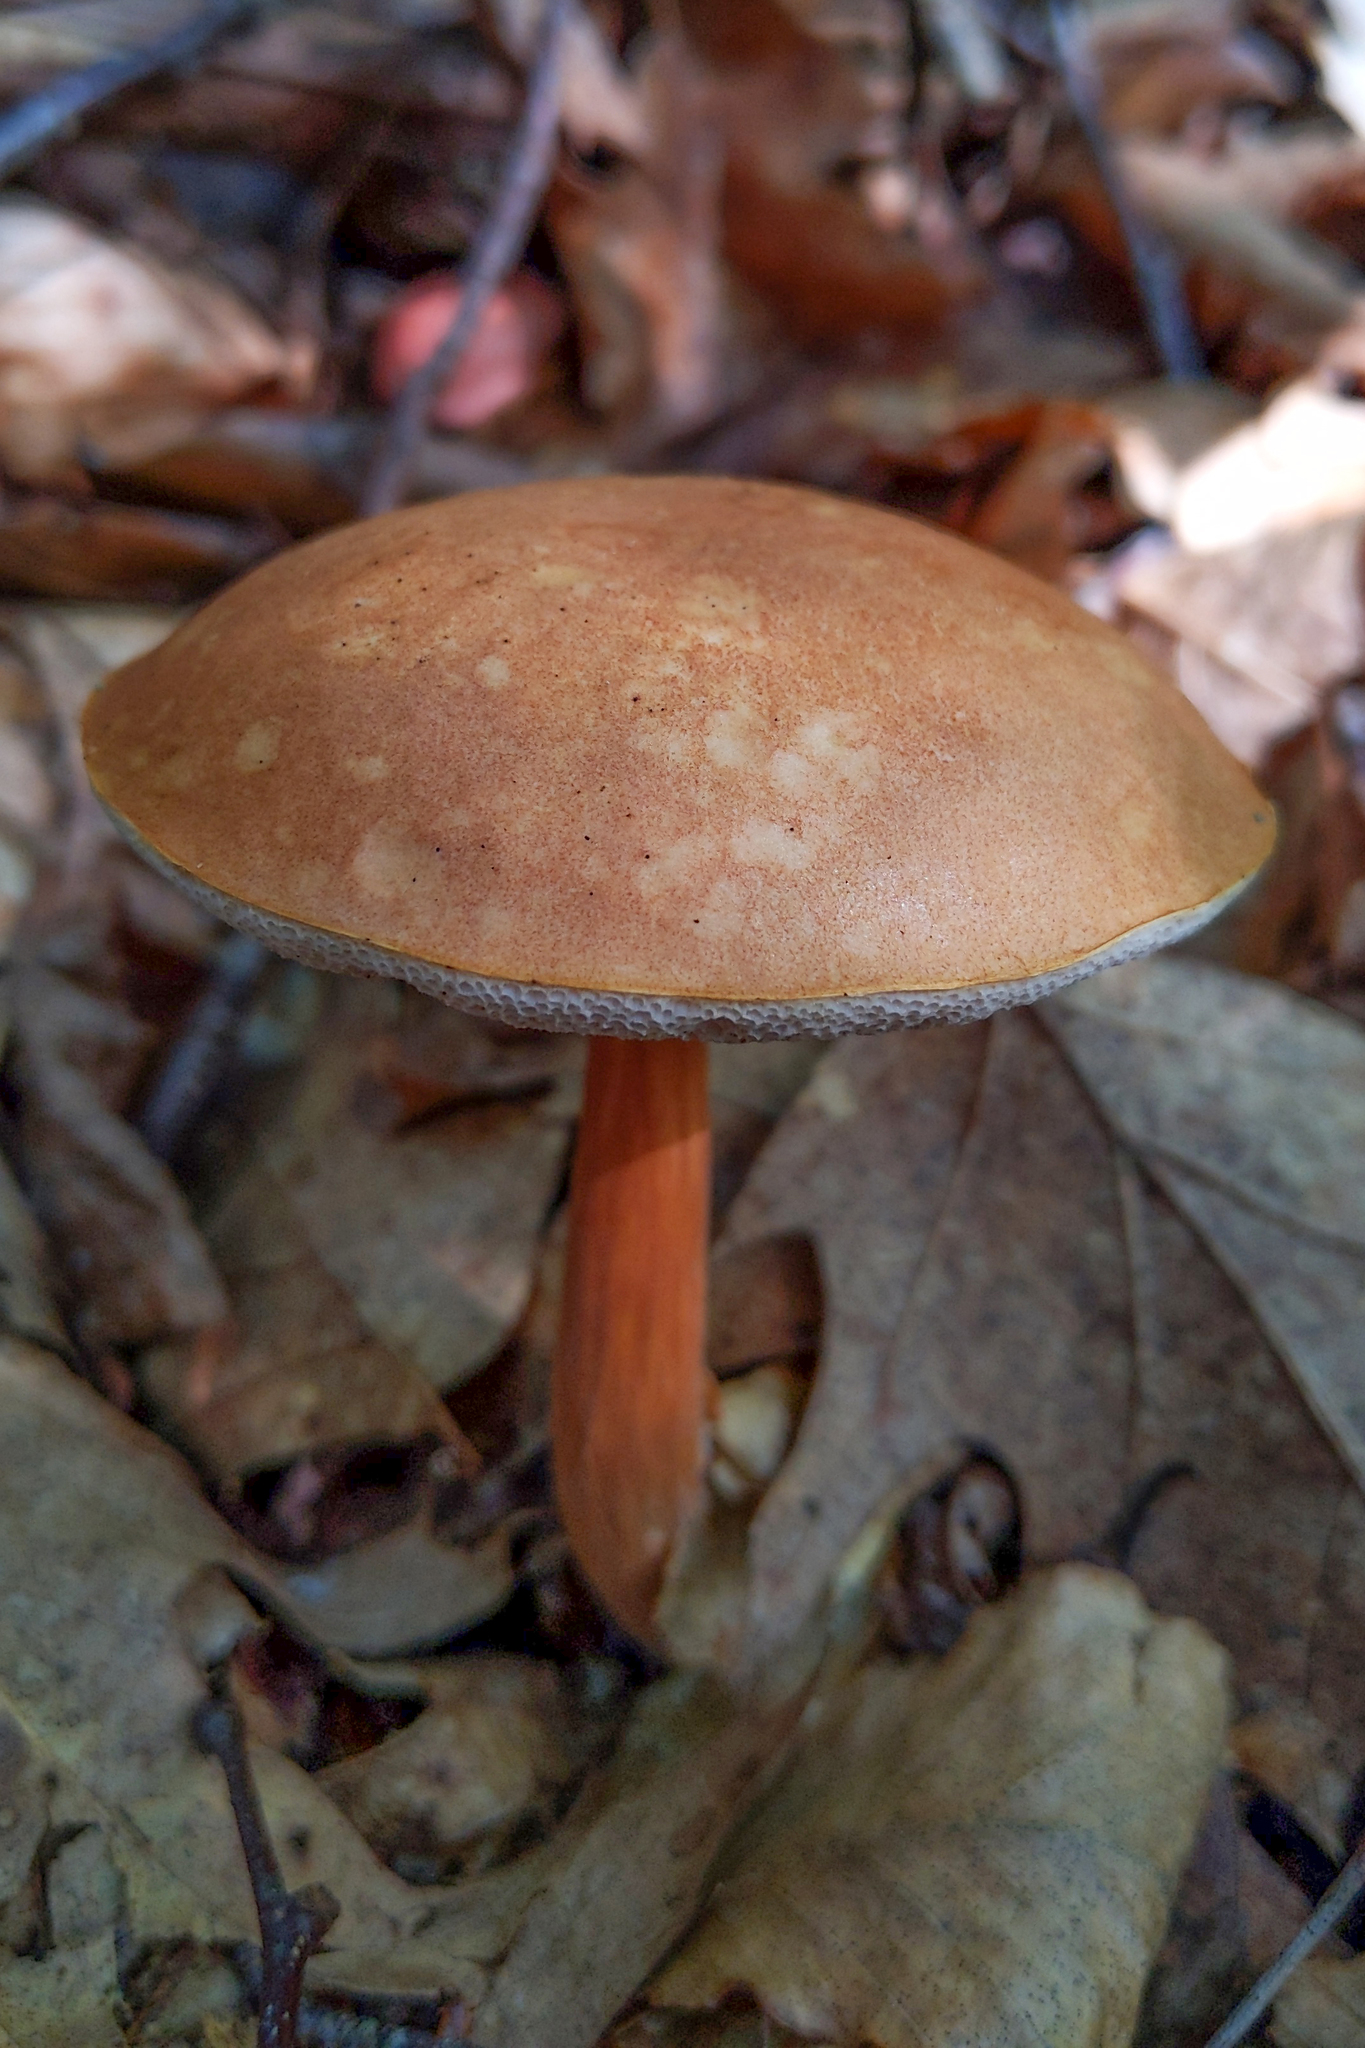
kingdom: Fungi
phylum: Basidiomycota
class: Agaricomycetes
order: Boletales
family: Boletaceae
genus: Austroboletus
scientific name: Austroboletus gracilis
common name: Graceful bolete
